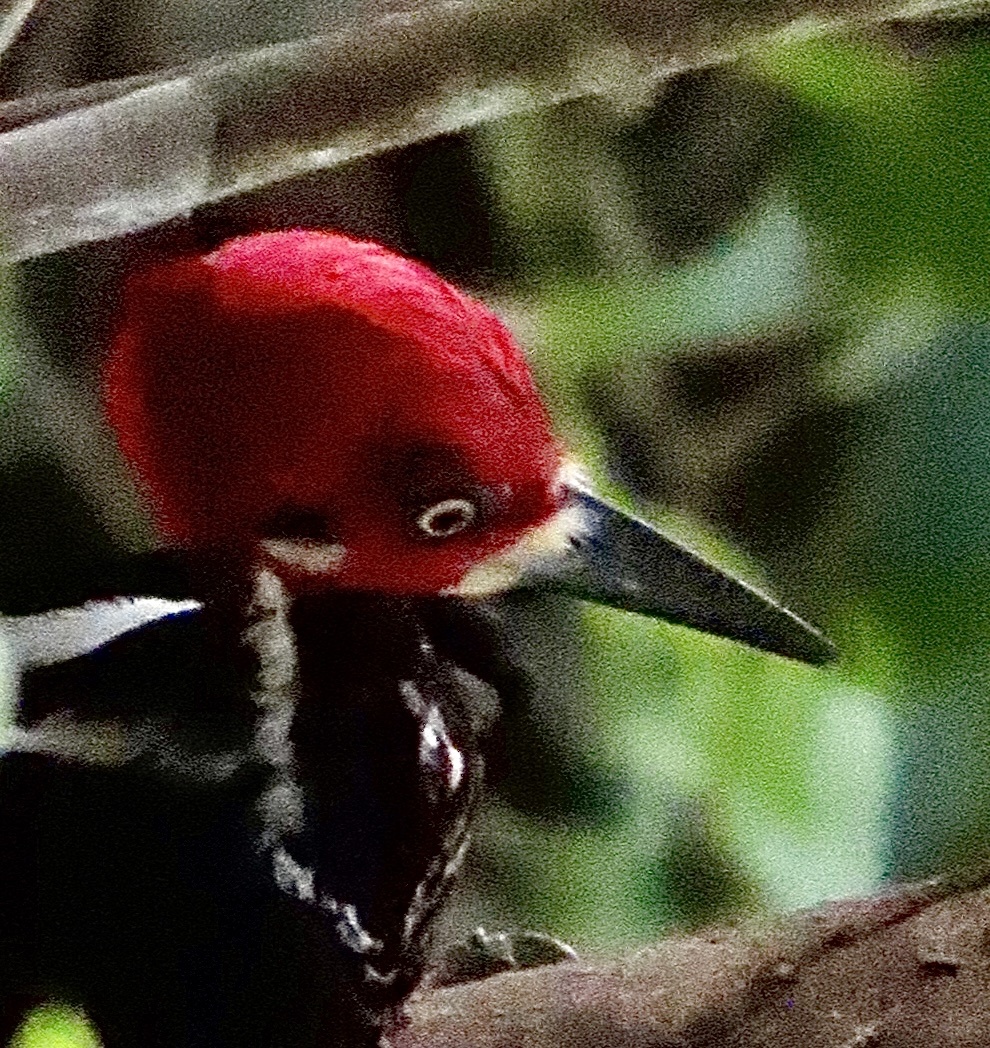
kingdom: Animalia
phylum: Chordata
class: Aves
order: Piciformes
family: Picidae
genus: Campephilus
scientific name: Campephilus melanoleucos
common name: Crimson-crested woodpecker
